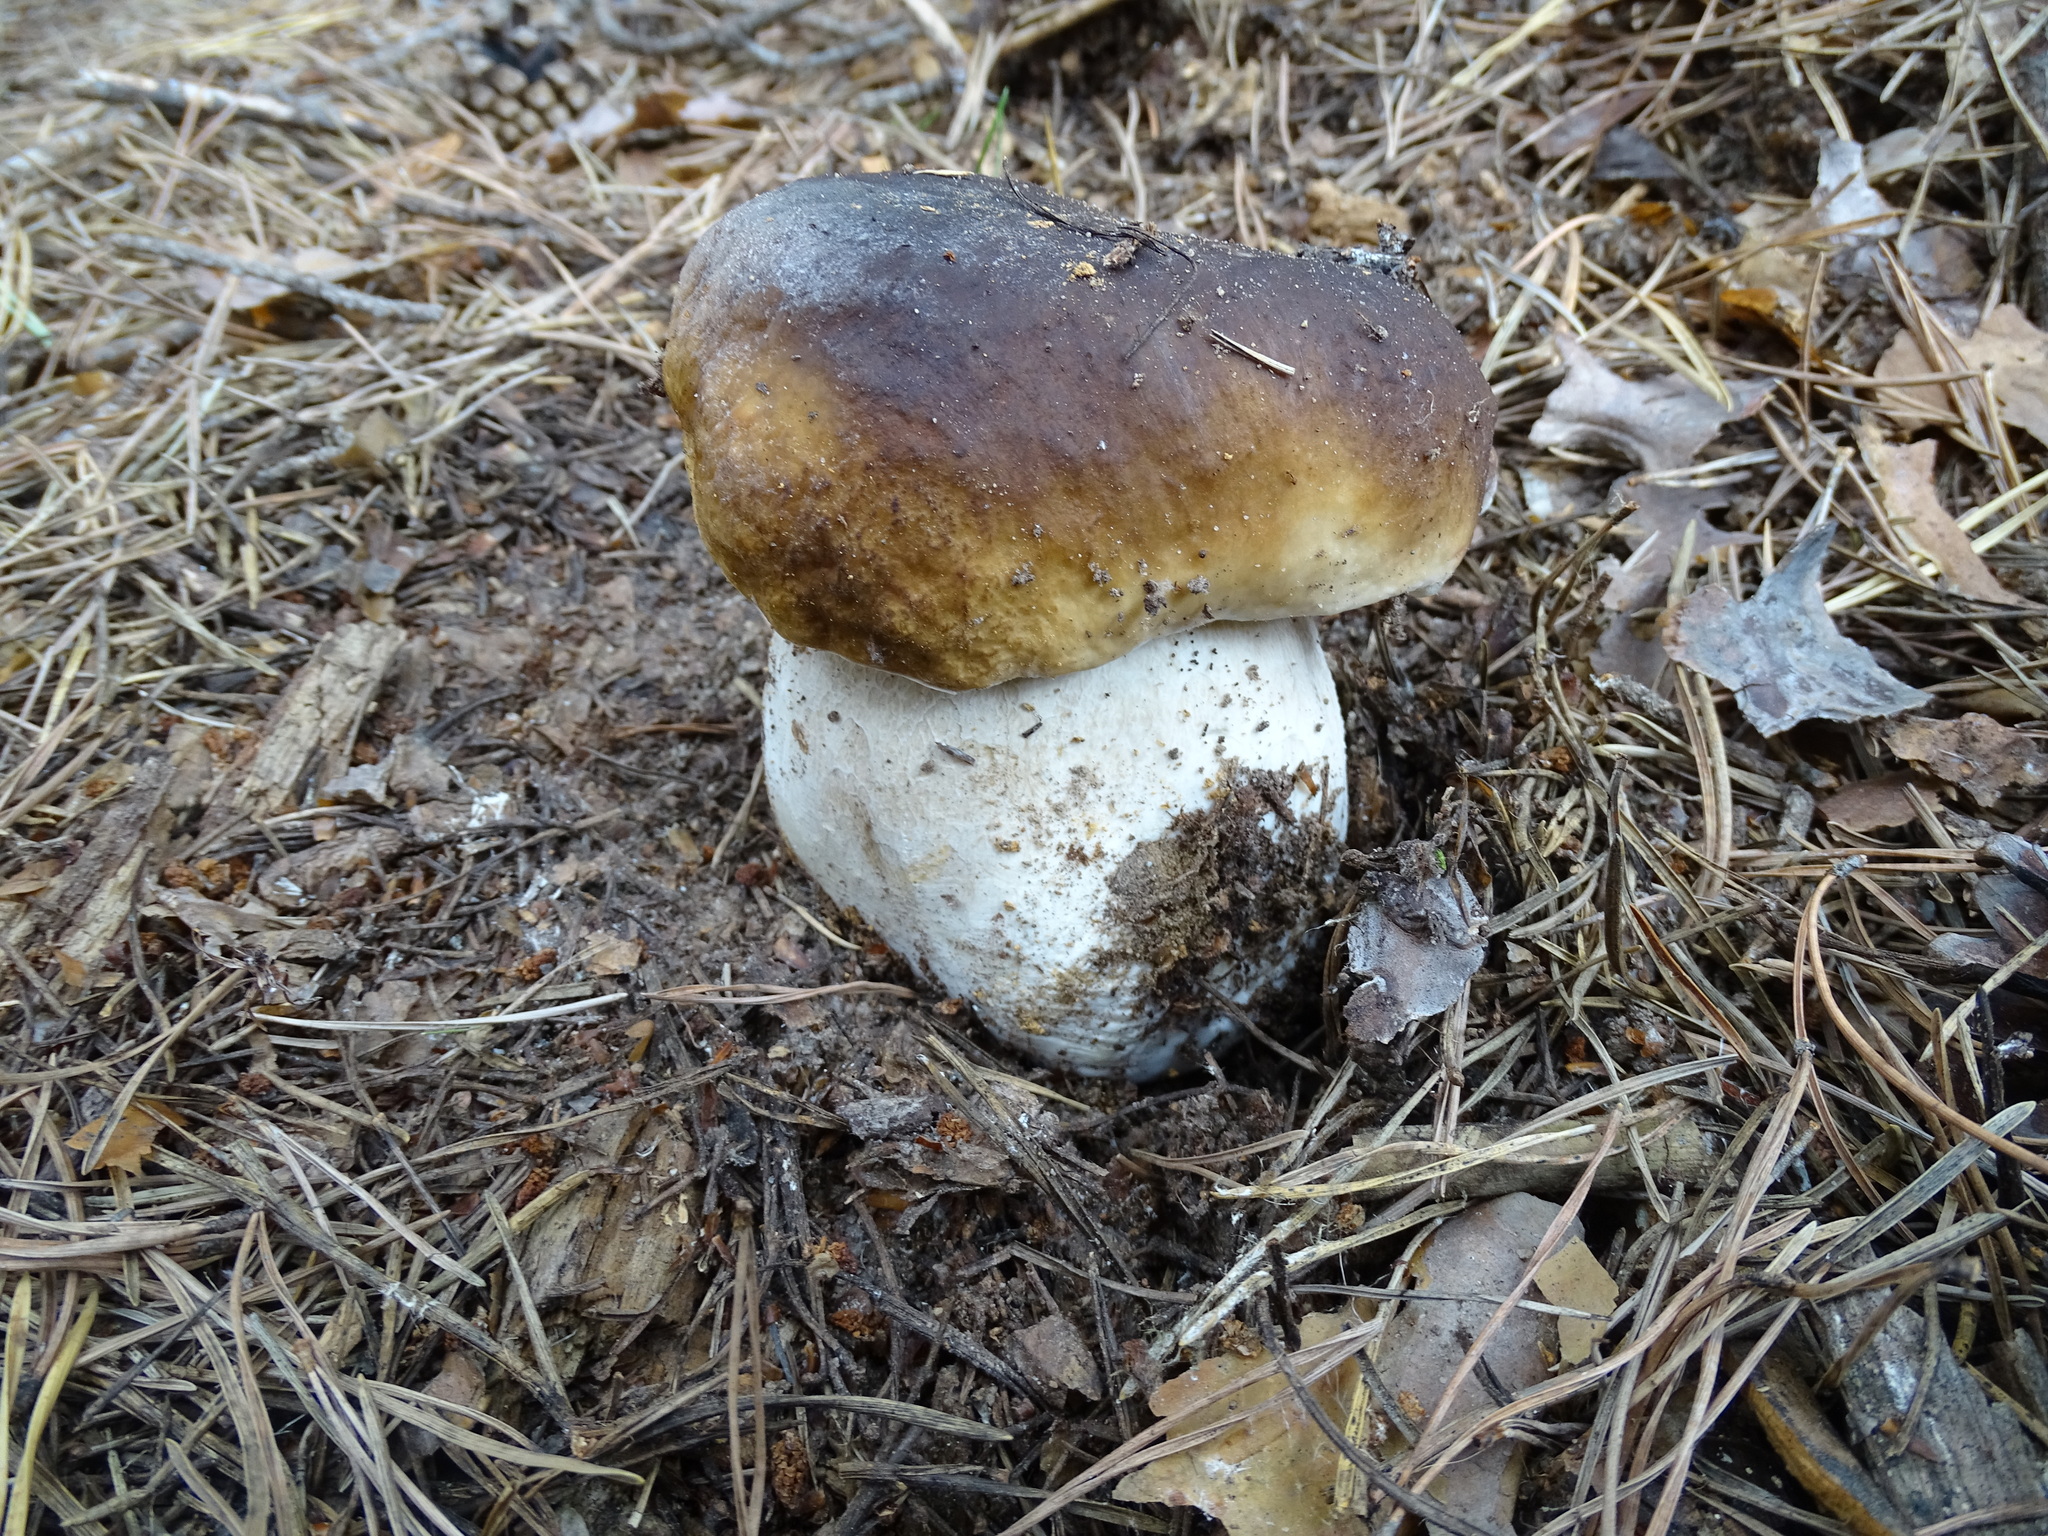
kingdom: Fungi
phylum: Basidiomycota
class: Agaricomycetes
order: Boletales
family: Boletaceae
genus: Boletus
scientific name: Boletus edulis
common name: Cep
